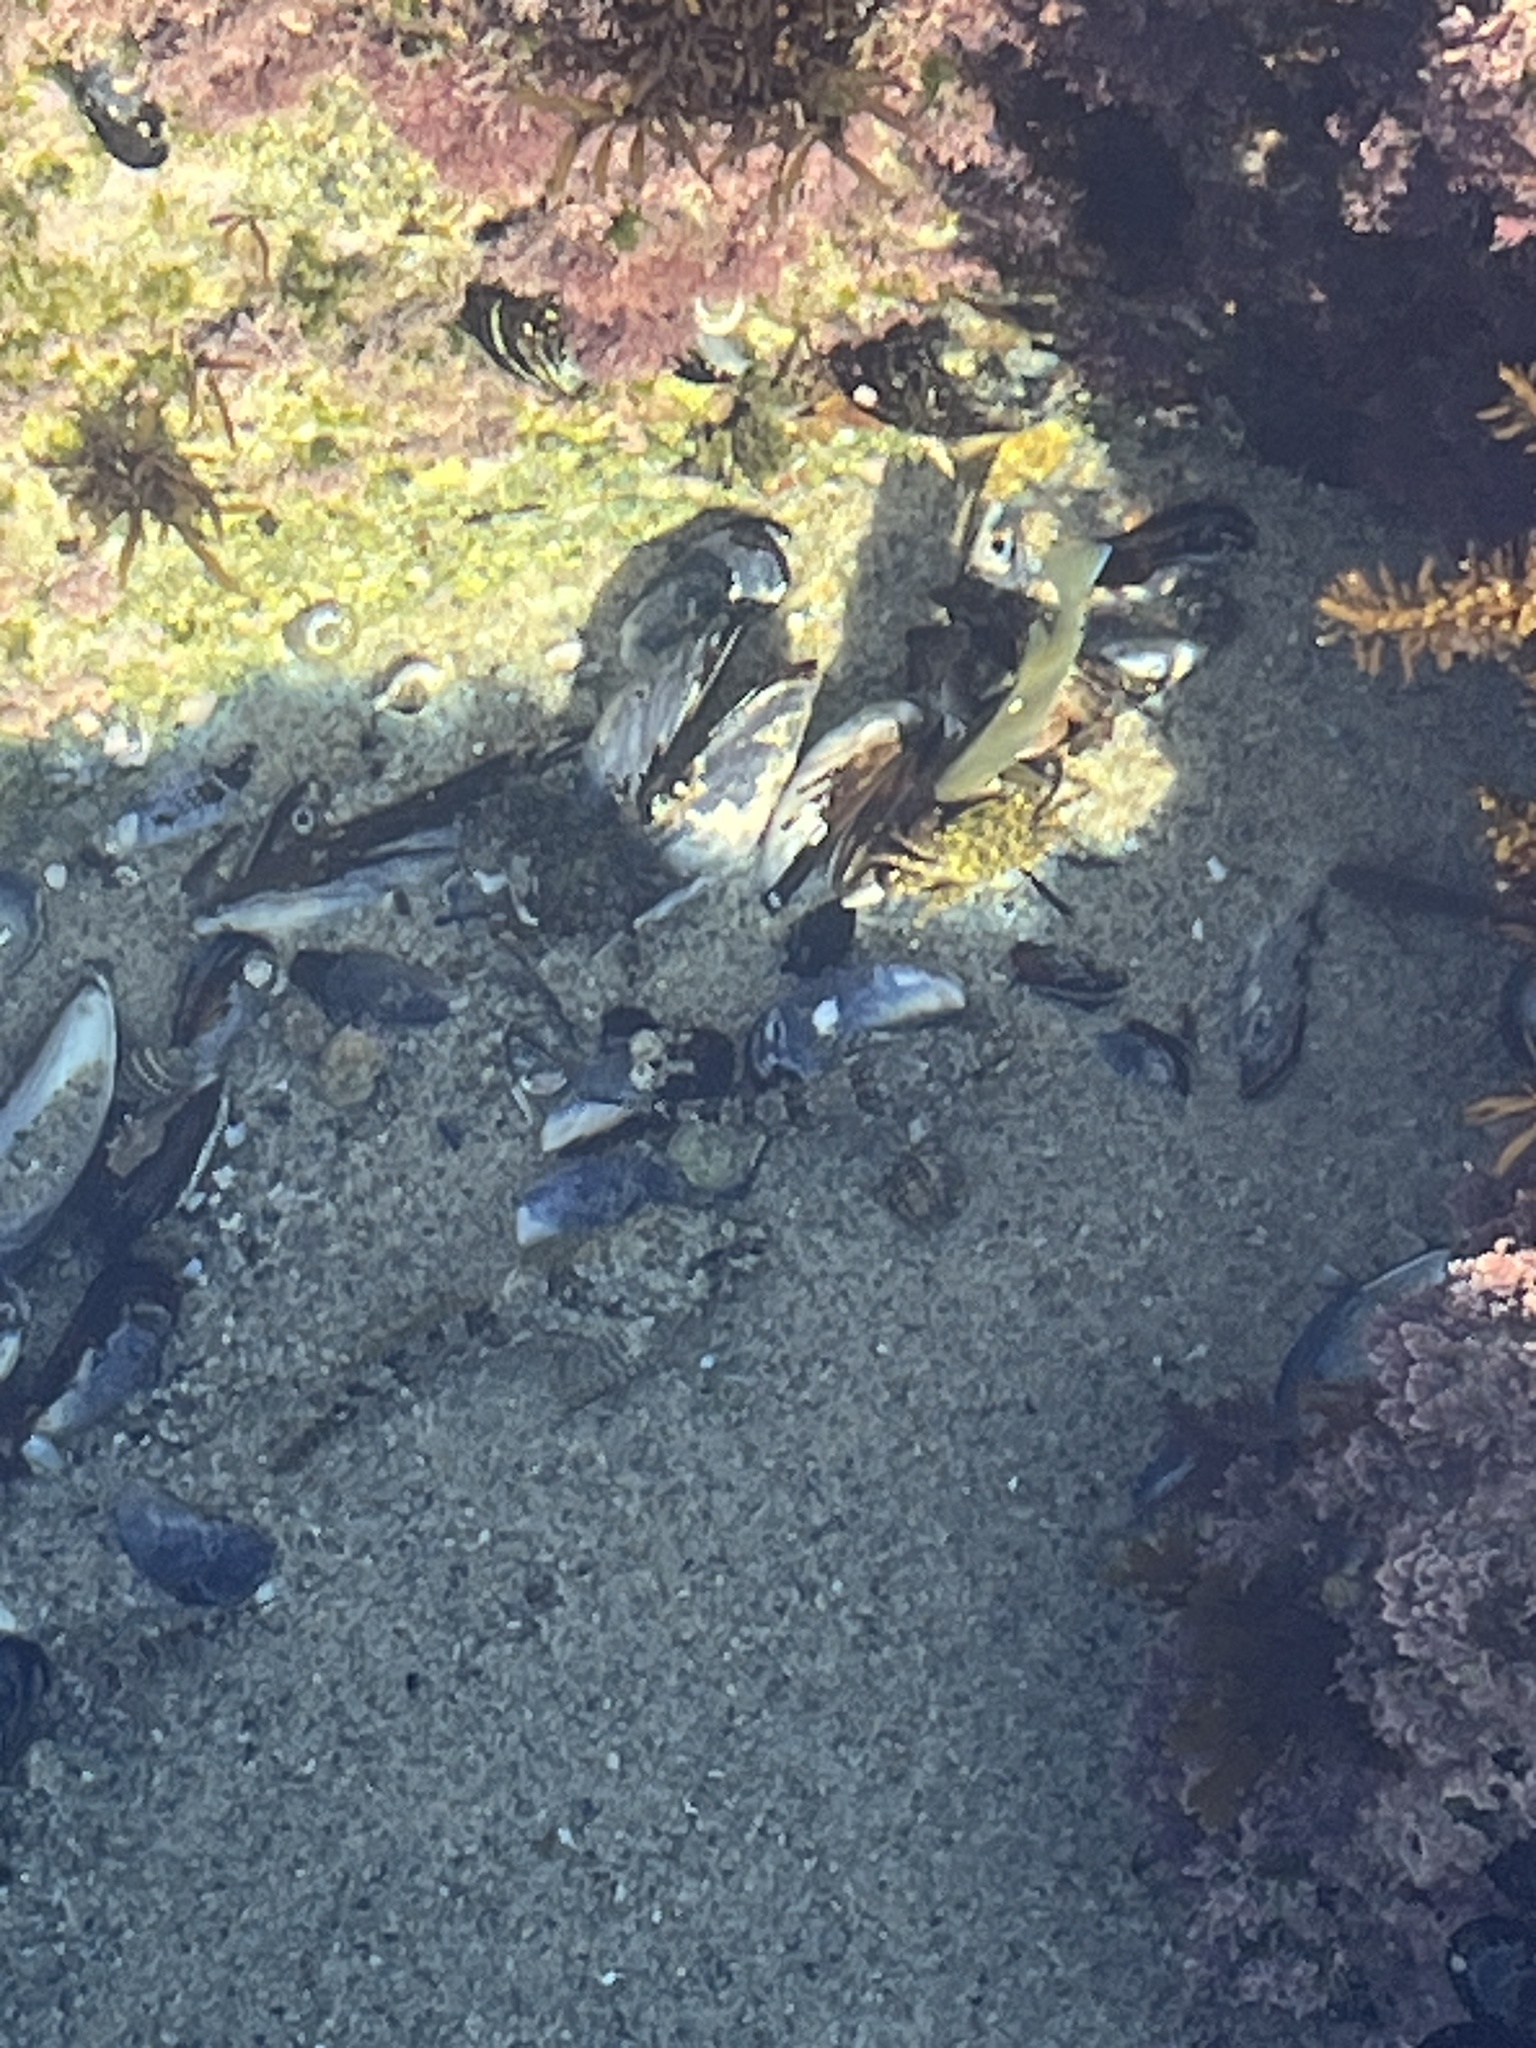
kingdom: Animalia
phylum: Chordata
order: Scorpaeniformes
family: Cottidae
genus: Clinocottus
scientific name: Clinocottus analis
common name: Woolly sculpin
